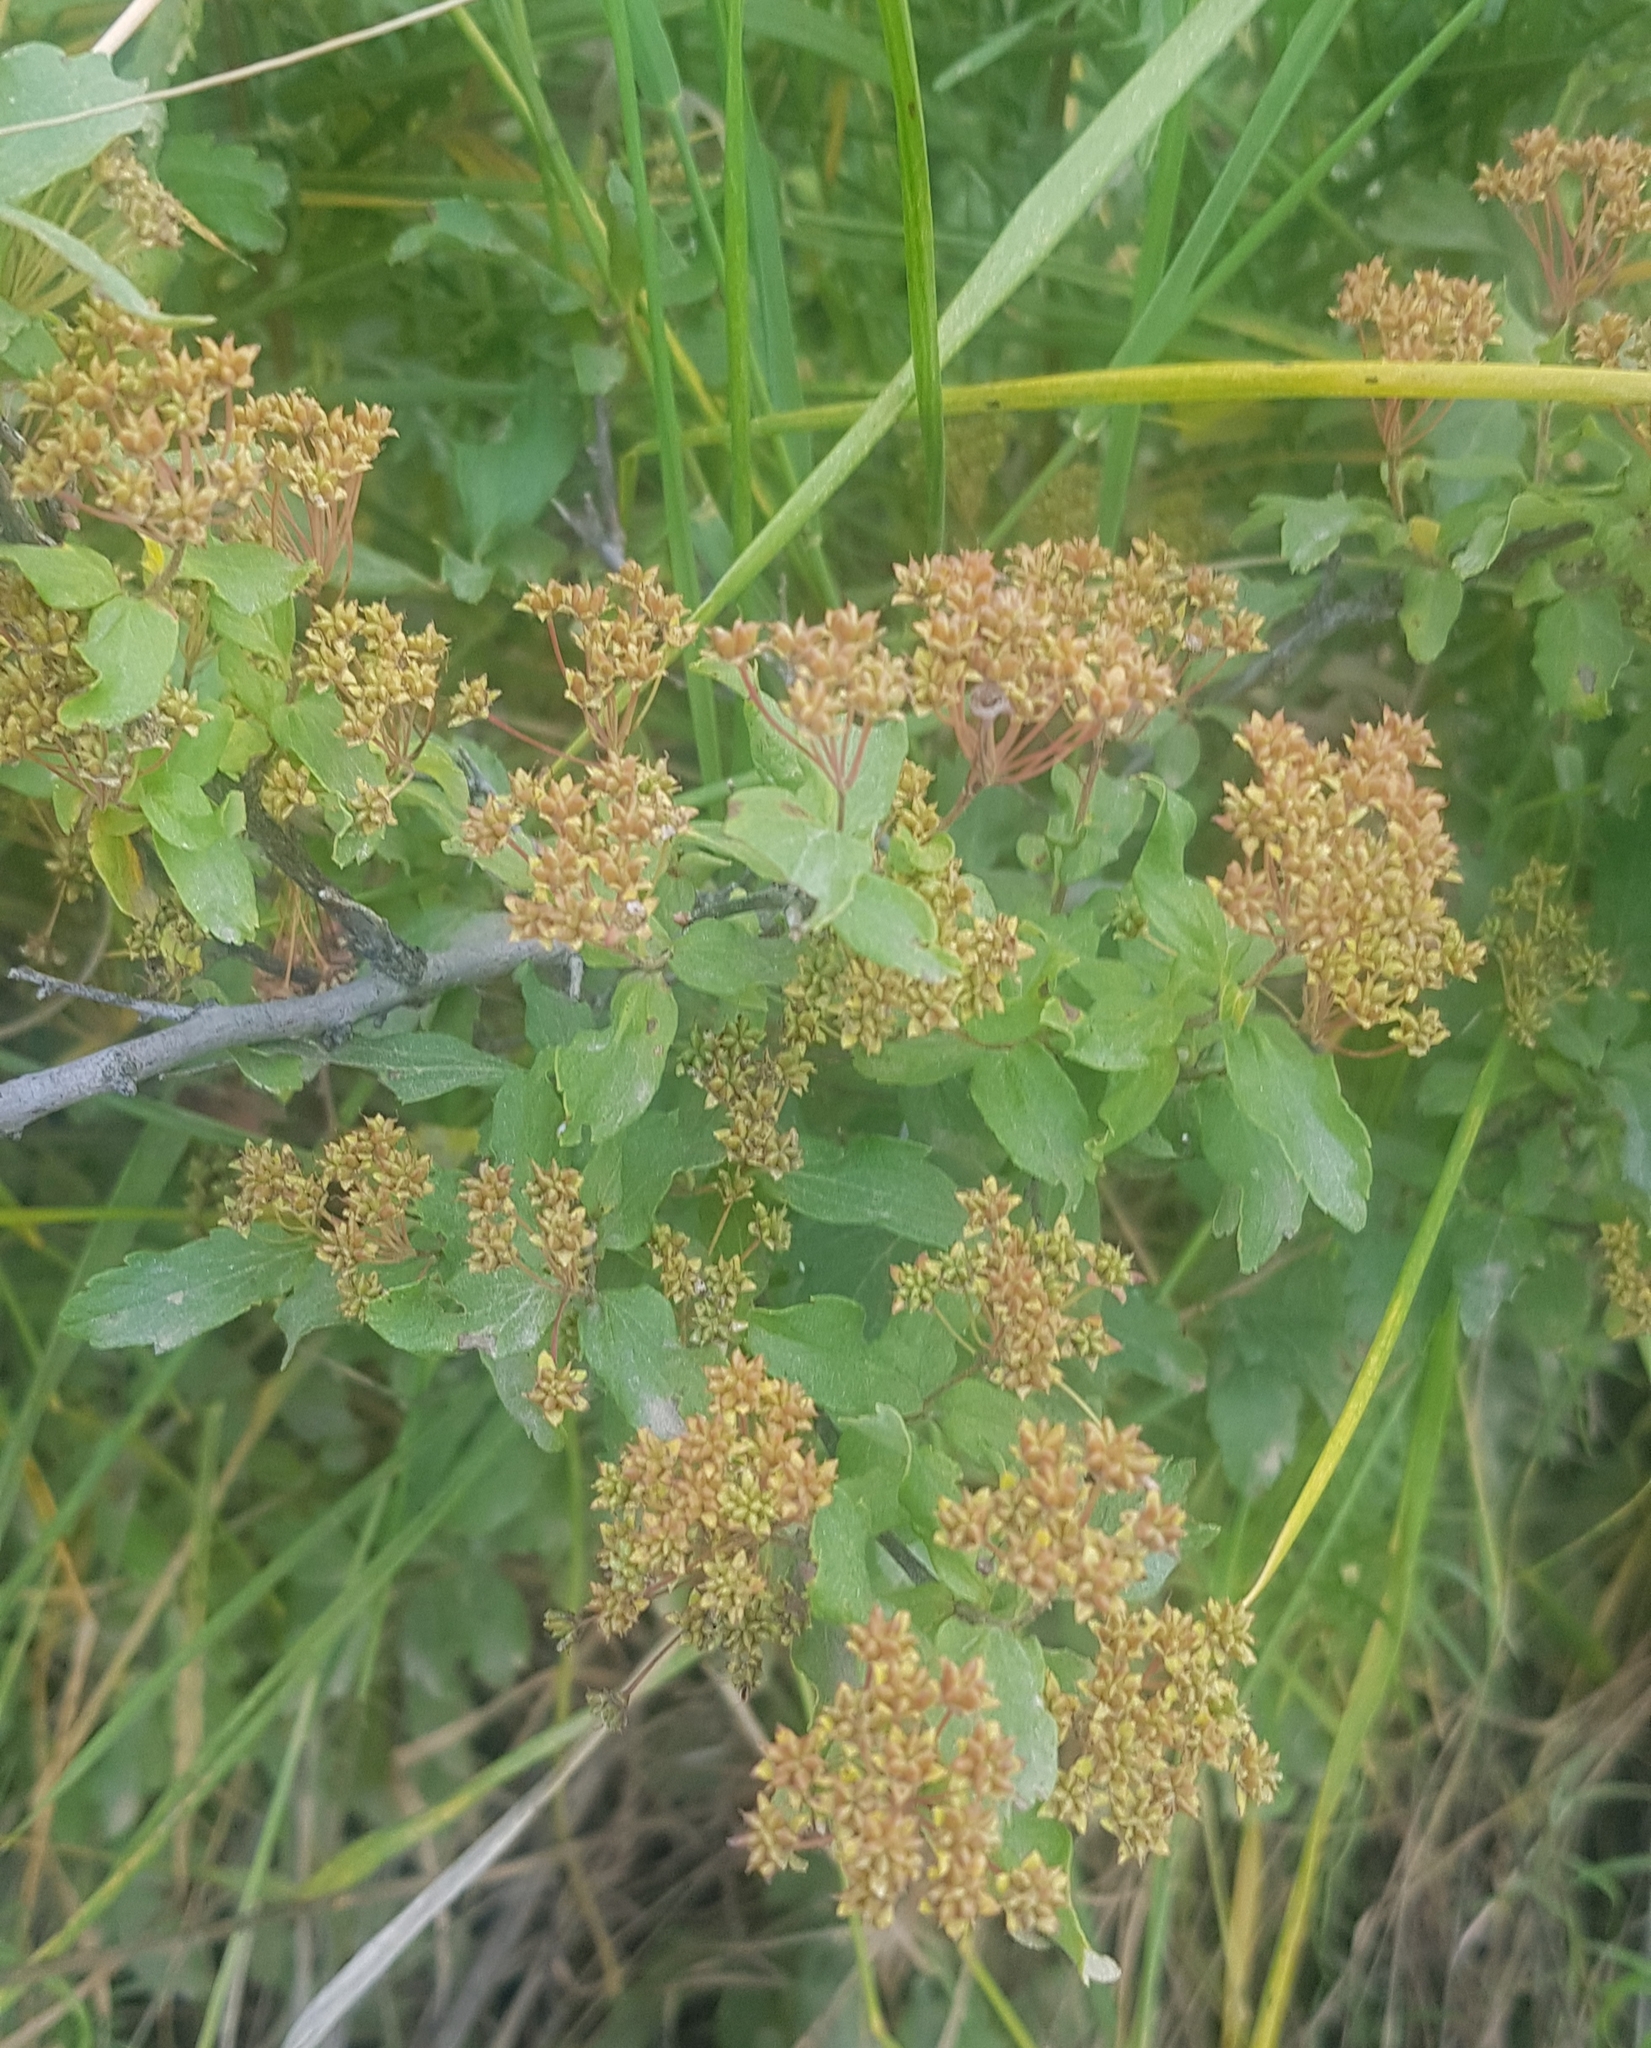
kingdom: Plantae
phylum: Tracheophyta
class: Magnoliopsida
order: Rosales
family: Rosaceae
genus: Spiraea
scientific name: Spiraea media
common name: Russian spiraea
